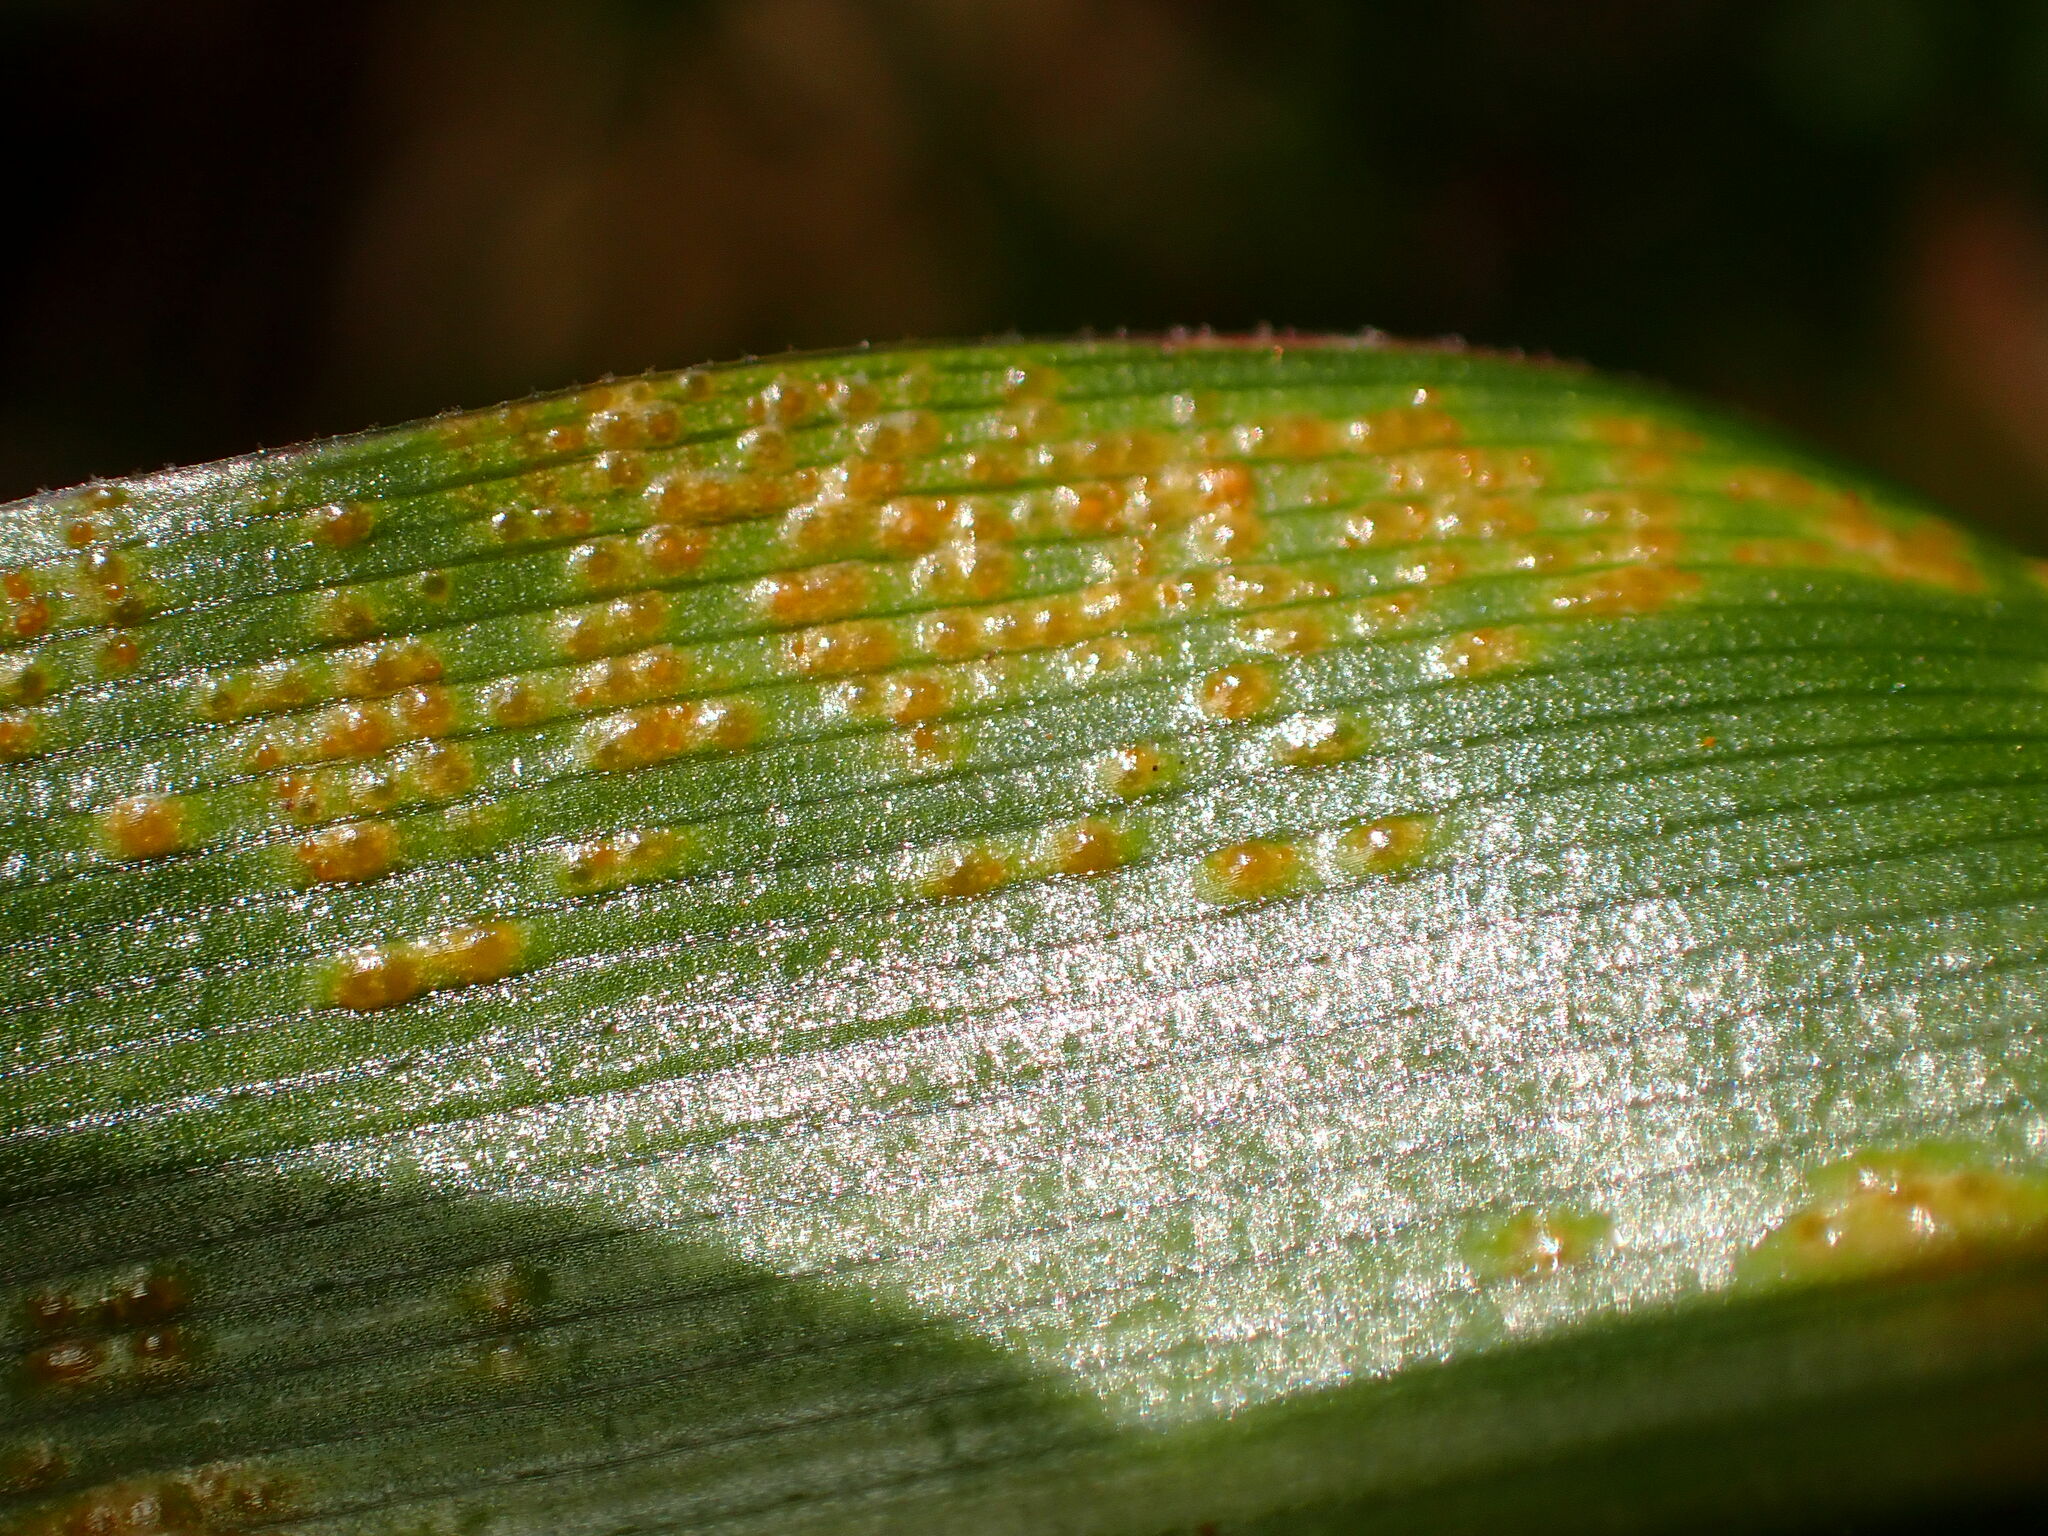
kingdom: Fungi
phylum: Basidiomycota
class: Pucciniomycetes
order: Pucciniales
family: Pucciniaceae
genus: Uromyces
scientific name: Uromyces chlorogali
